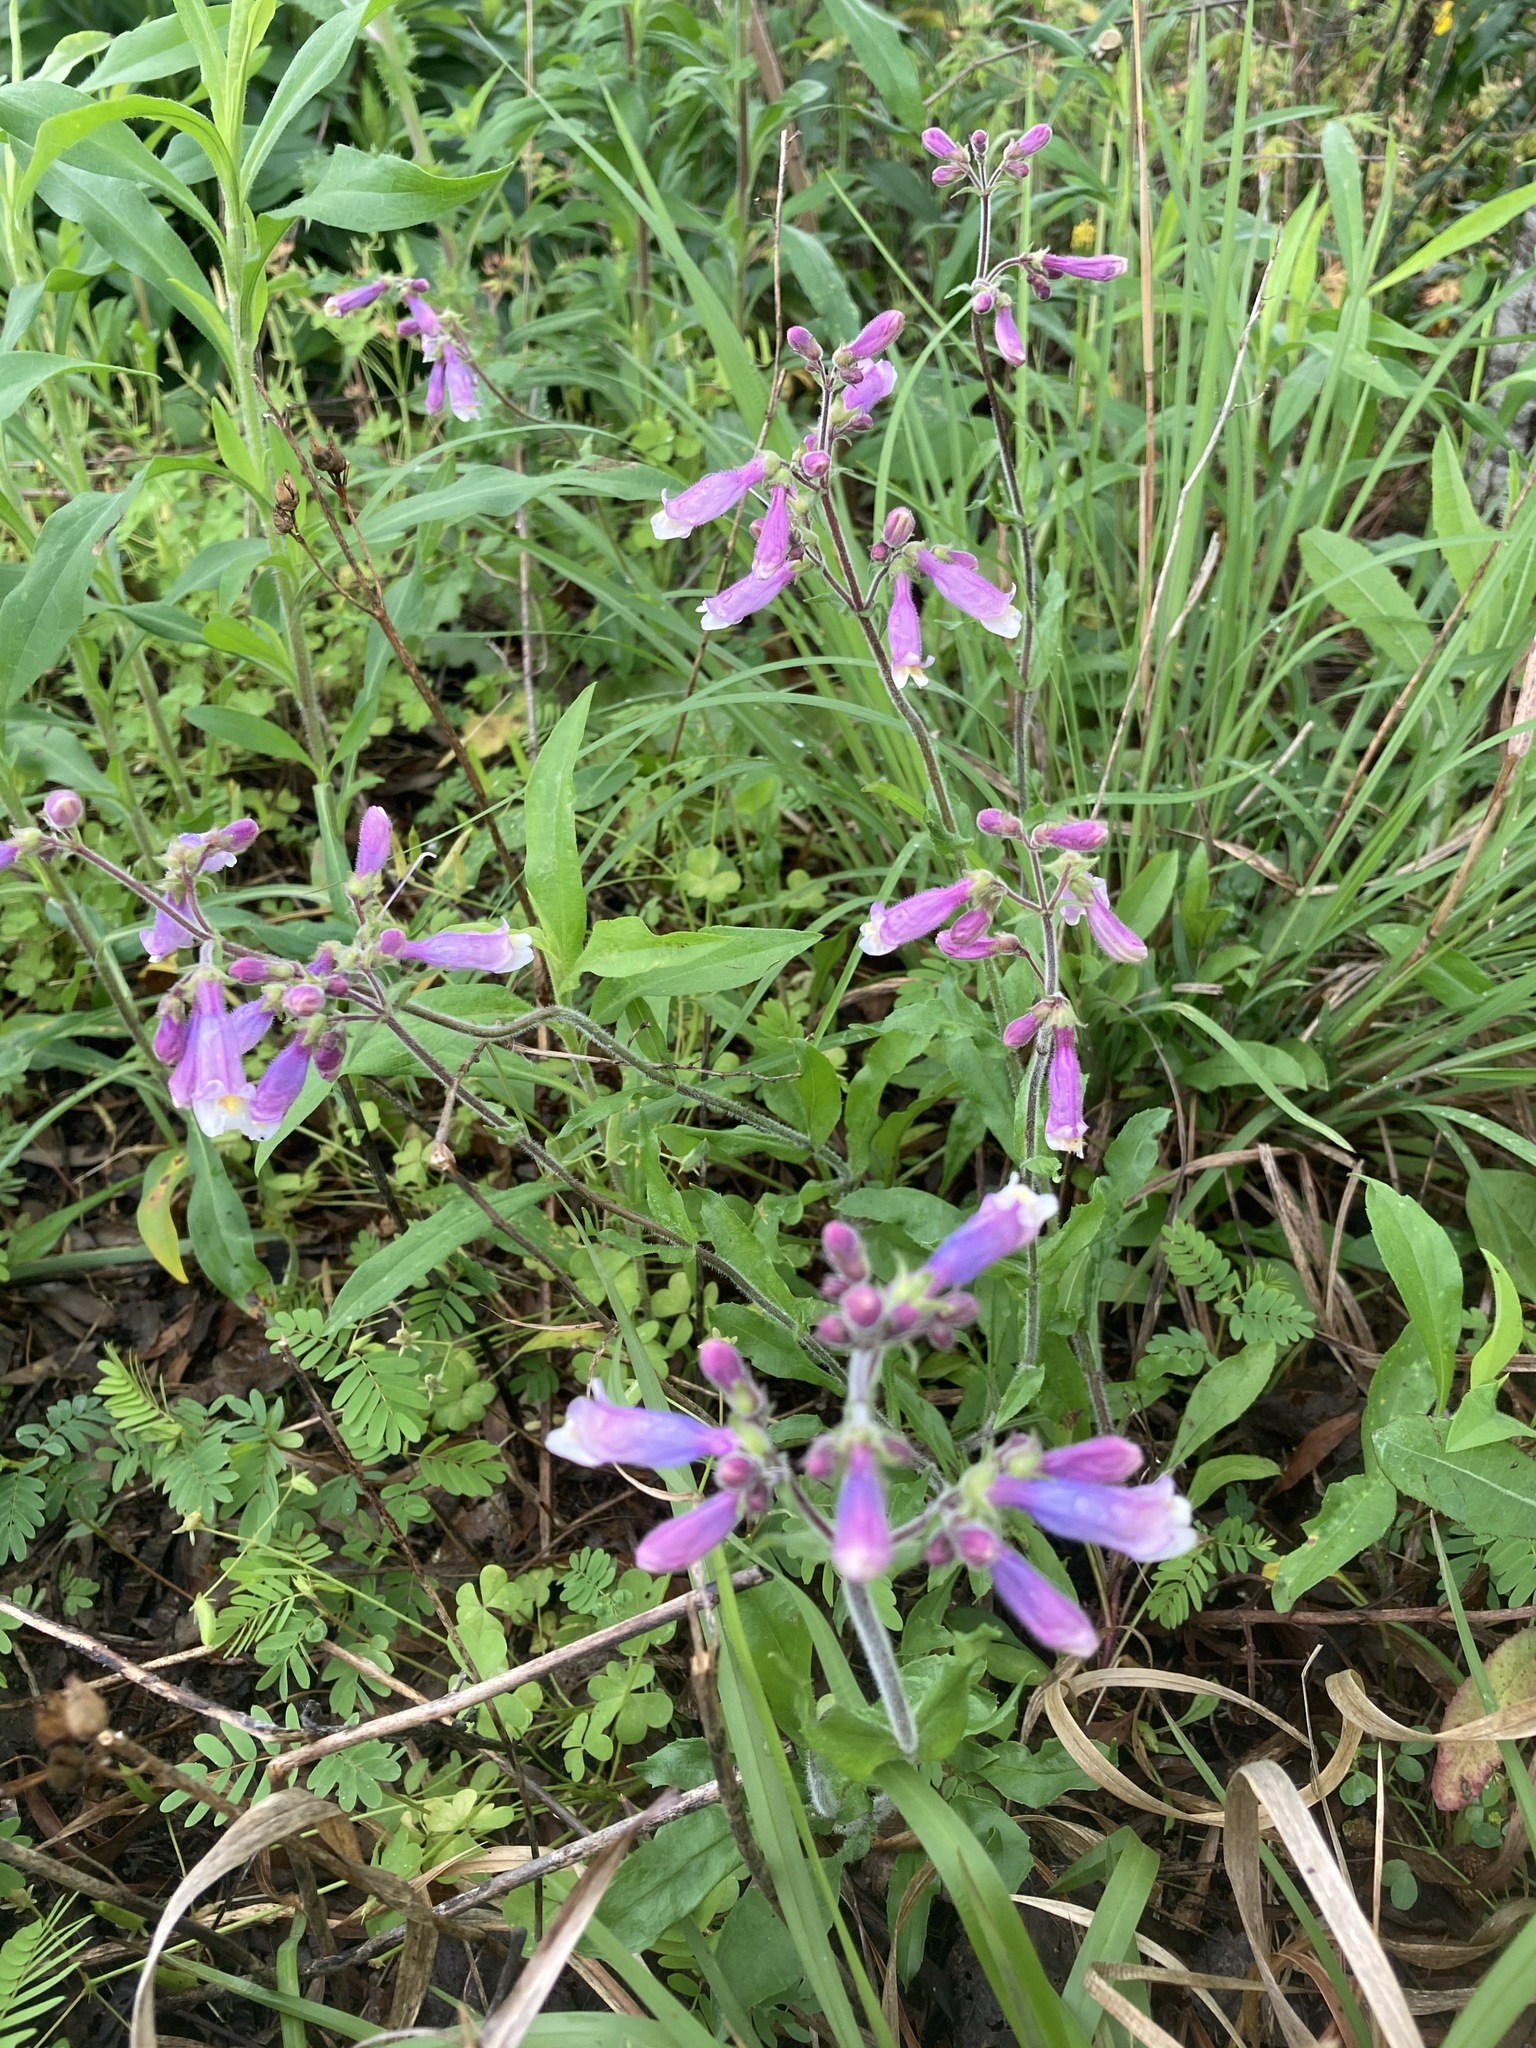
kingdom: Plantae
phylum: Tracheophyta
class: Magnoliopsida
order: Lamiales
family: Plantaginaceae
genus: Penstemon
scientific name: Penstemon hirsutus
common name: Hairy beardtongue
